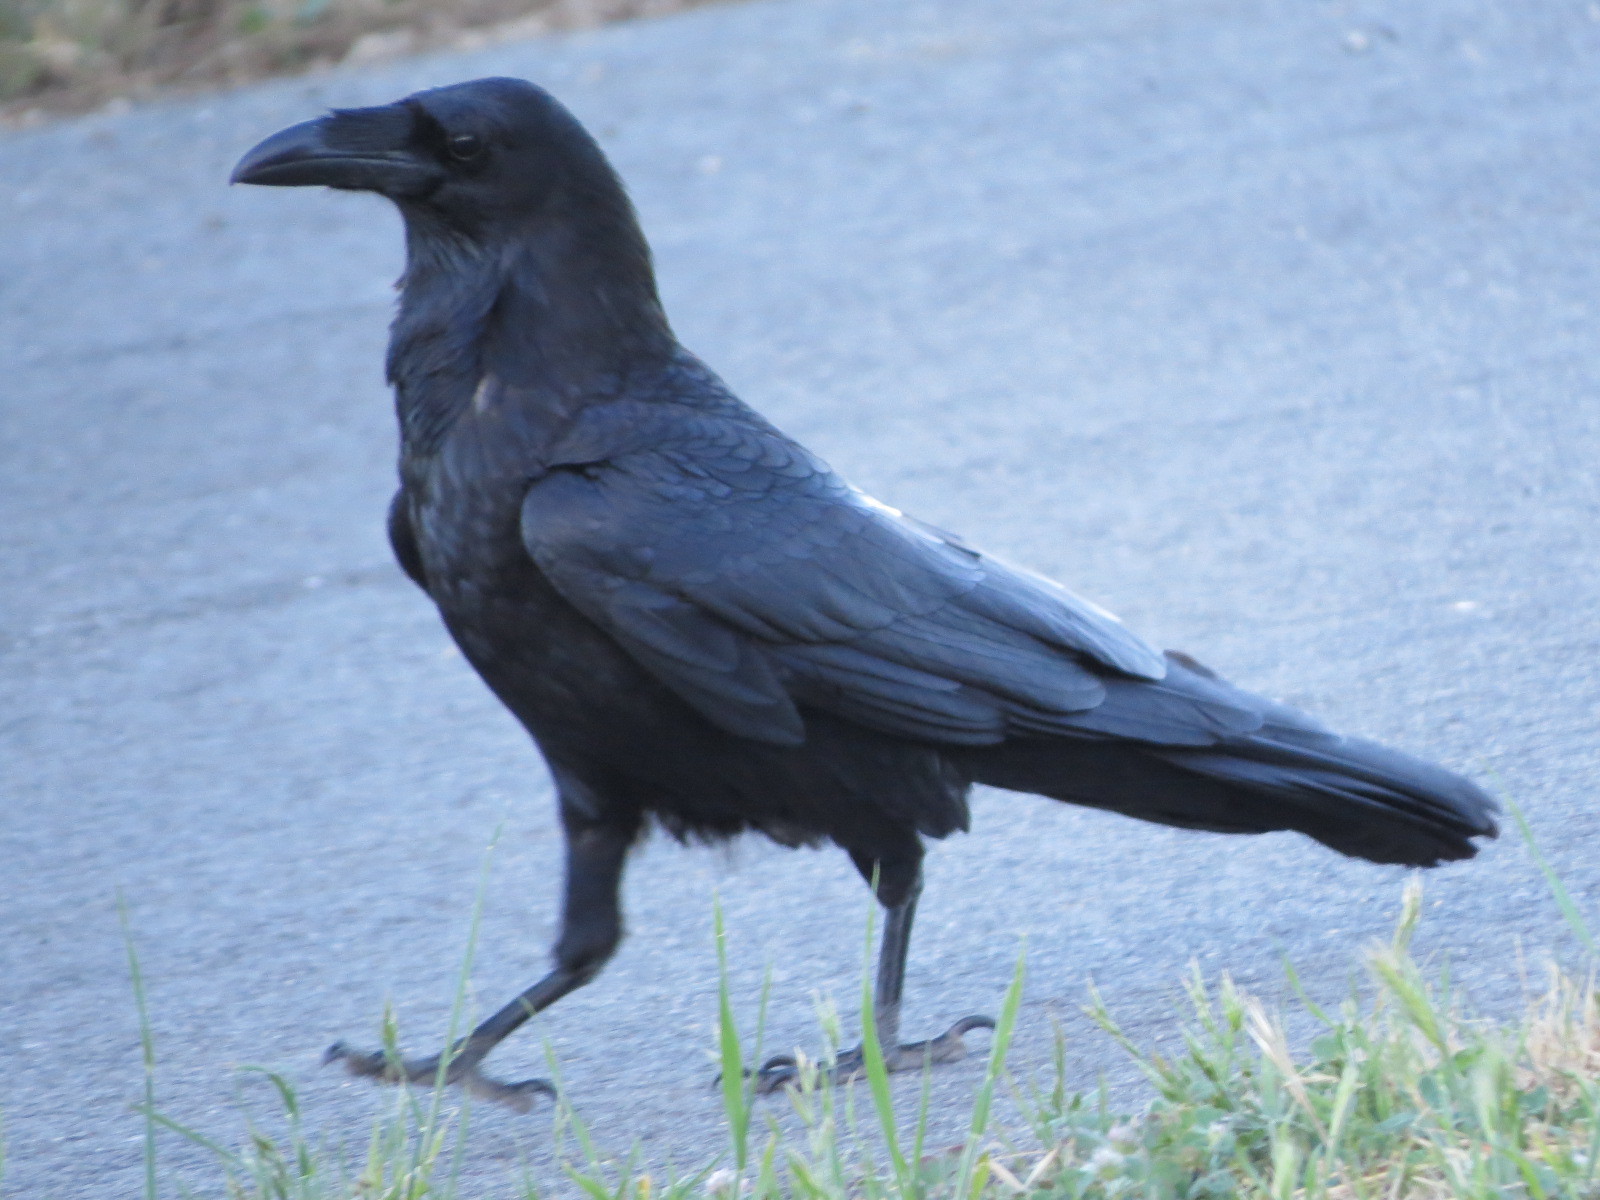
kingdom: Animalia
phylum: Chordata
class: Aves
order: Passeriformes
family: Corvidae
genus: Corvus
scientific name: Corvus corax
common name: Common raven
